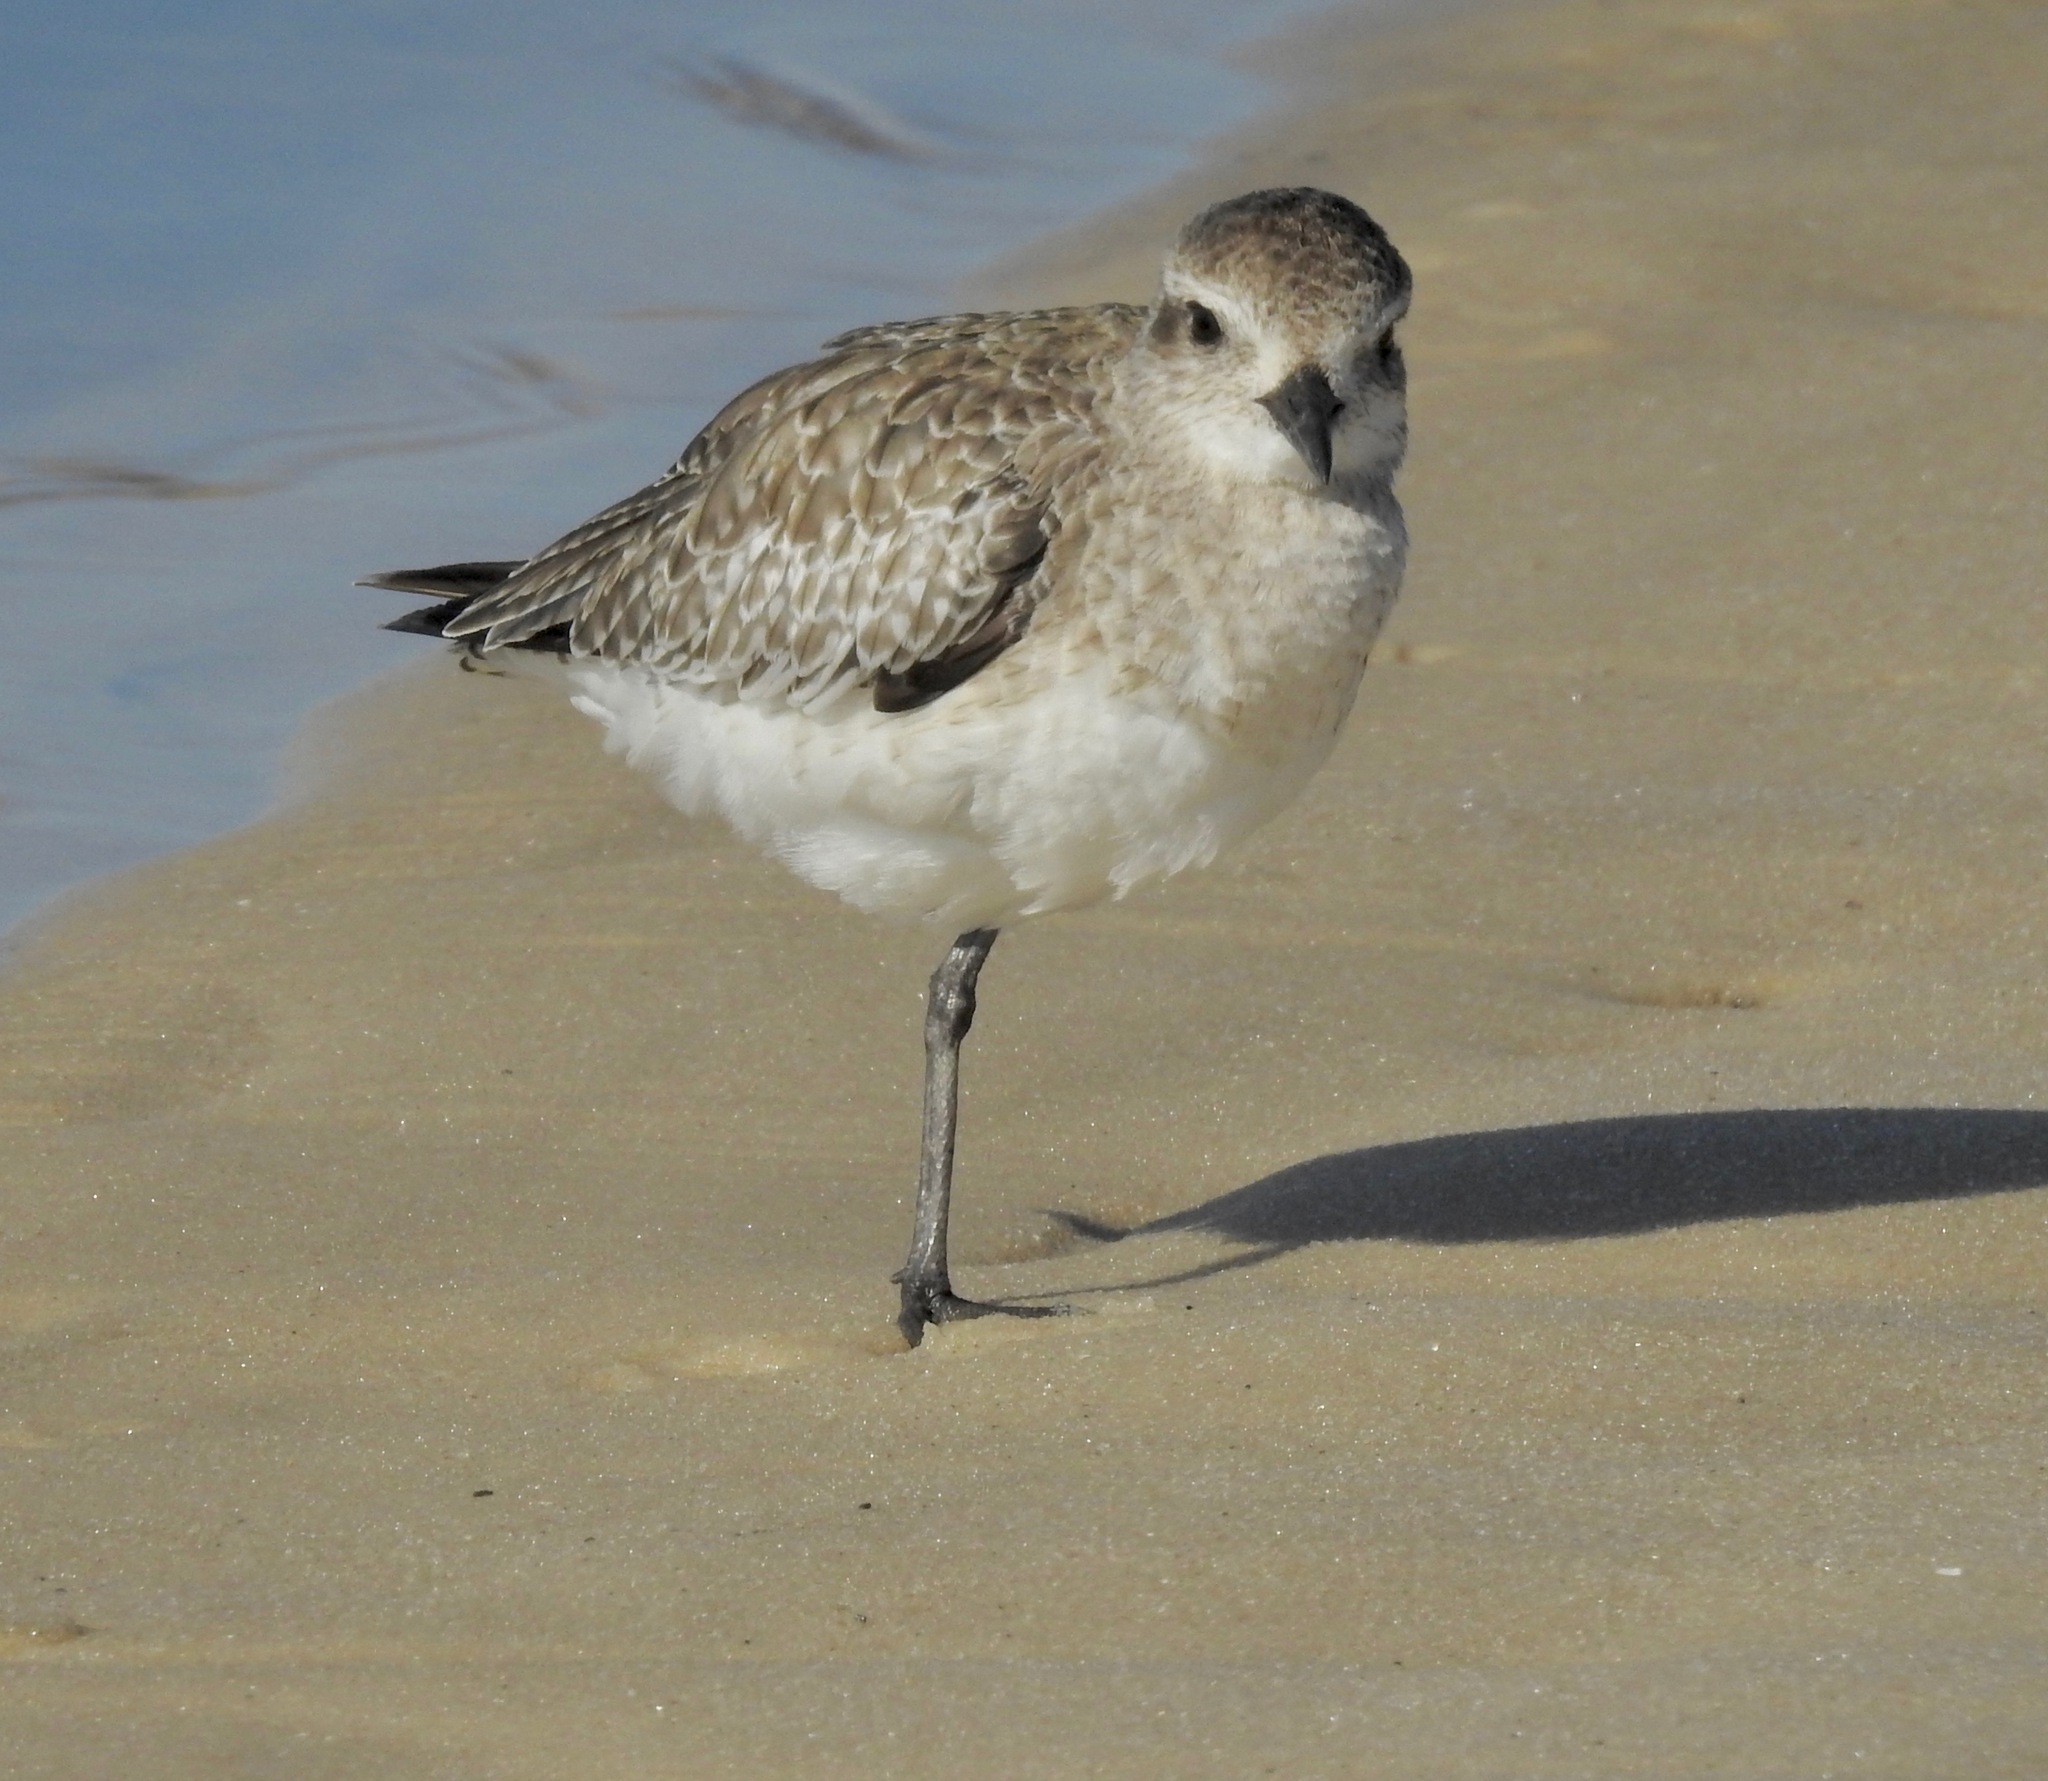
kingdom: Animalia
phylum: Chordata
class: Aves
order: Charadriiformes
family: Charadriidae
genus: Pluvialis
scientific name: Pluvialis squatarola
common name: Grey plover
